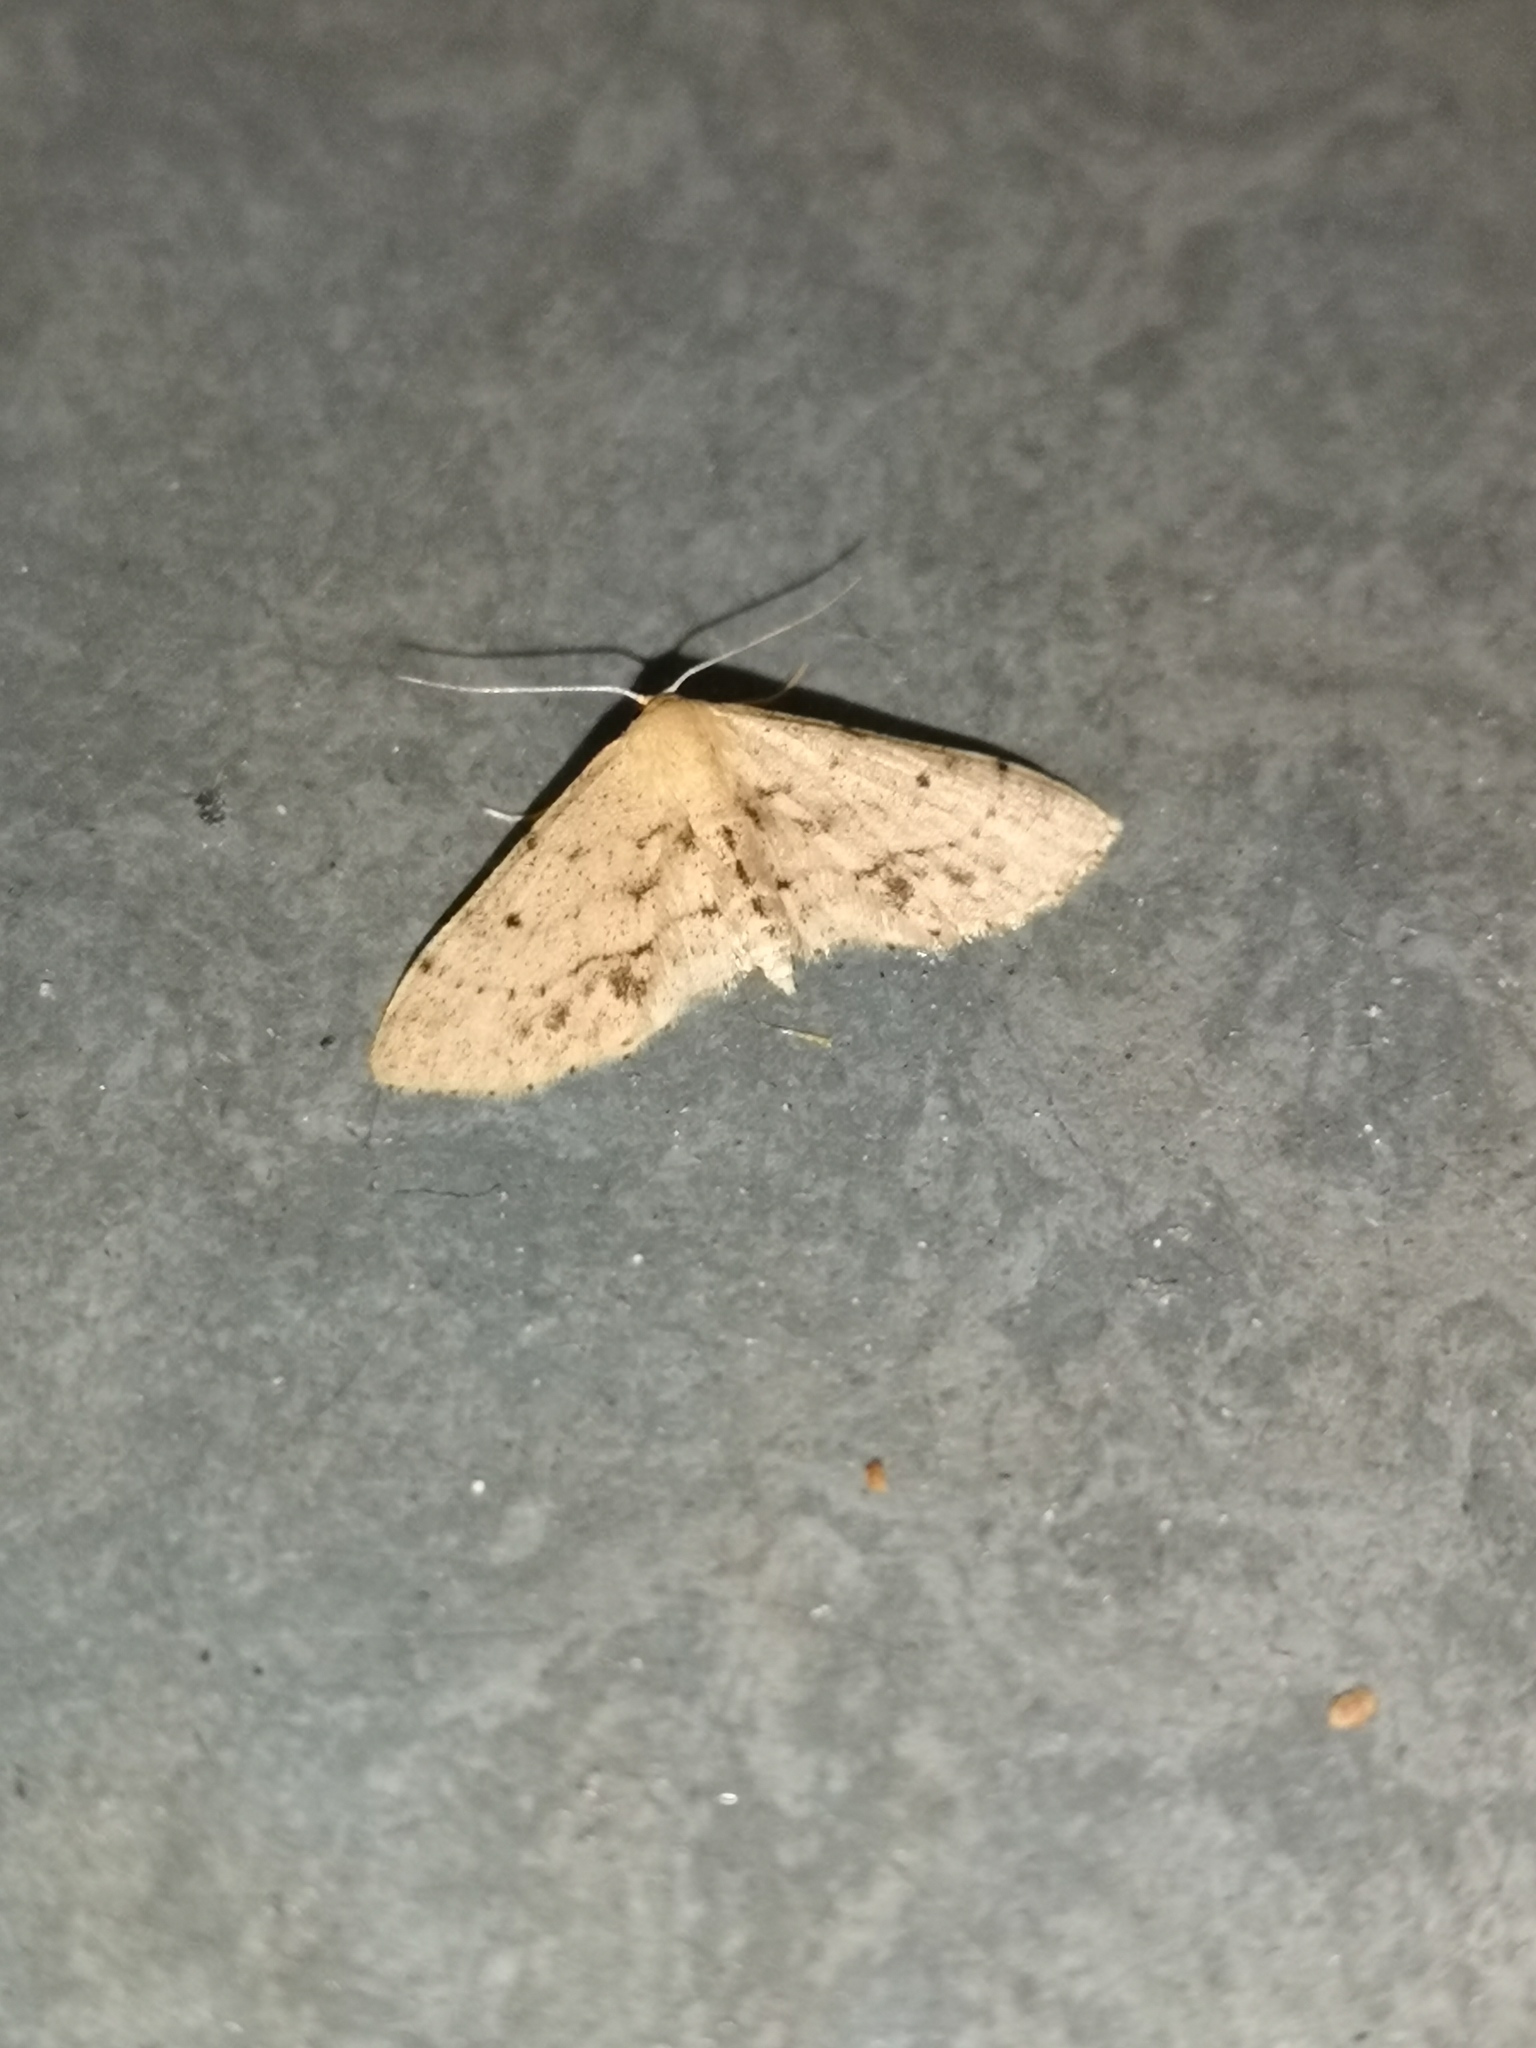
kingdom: Animalia
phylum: Arthropoda
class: Insecta
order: Lepidoptera
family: Geometridae
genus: Idaea
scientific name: Idaea dimidiata
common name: Single-dotted wave
